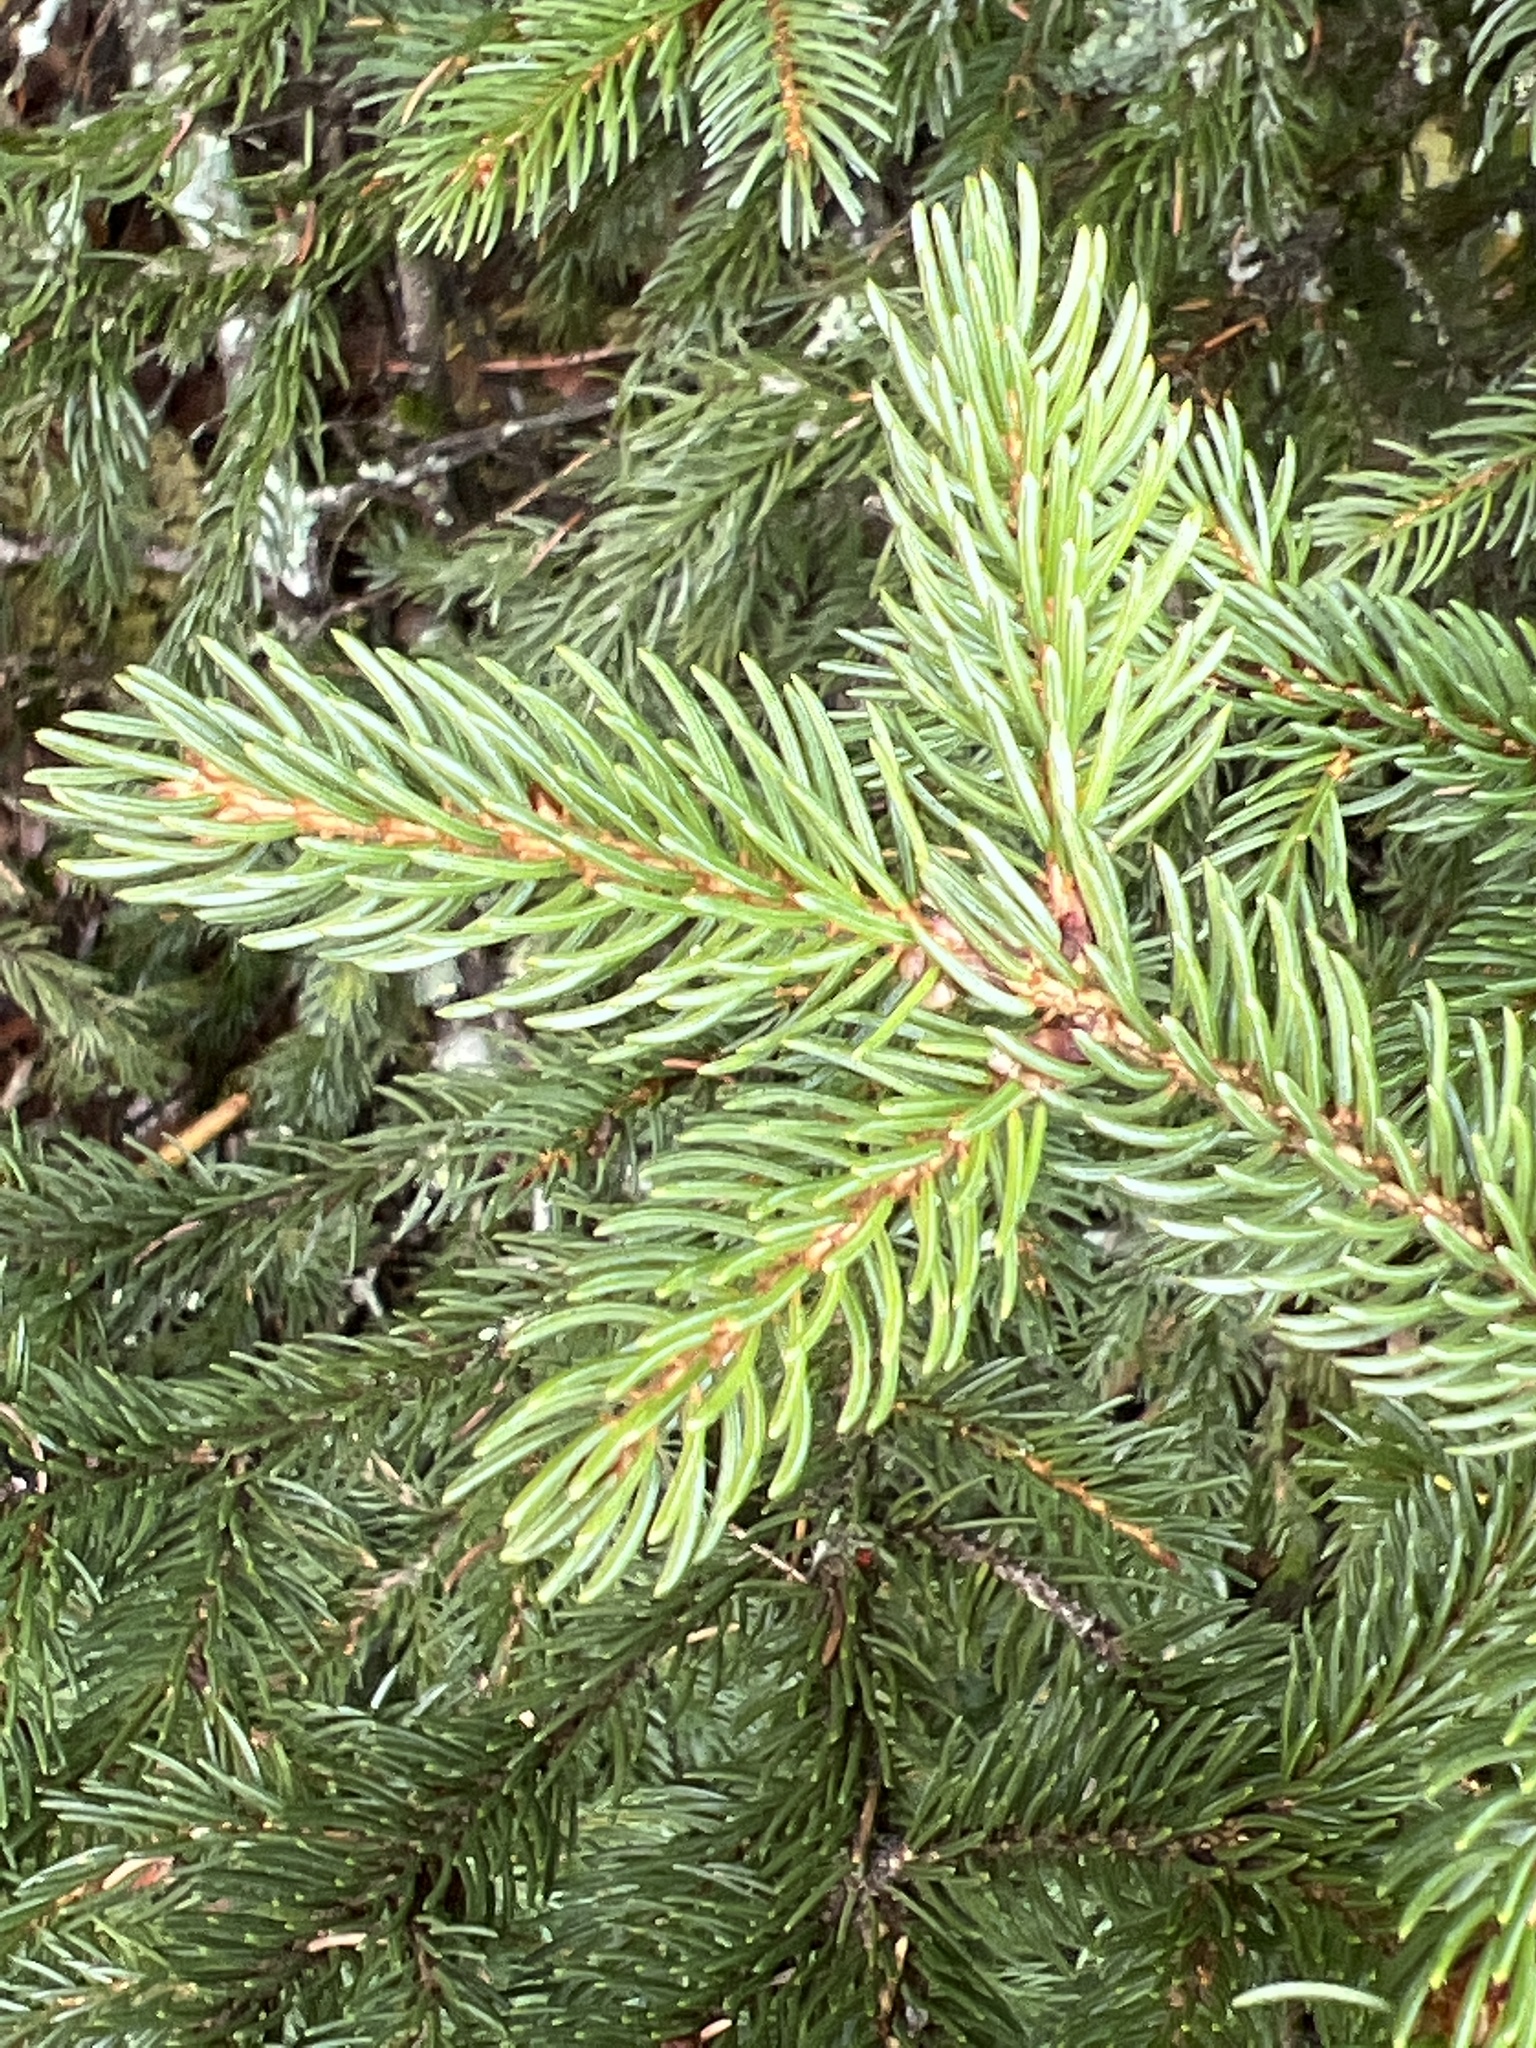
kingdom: Plantae
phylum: Tracheophyta
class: Pinopsida
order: Pinales
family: Pinaceae
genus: Picea
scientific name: Picea rubens
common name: Red spruce
